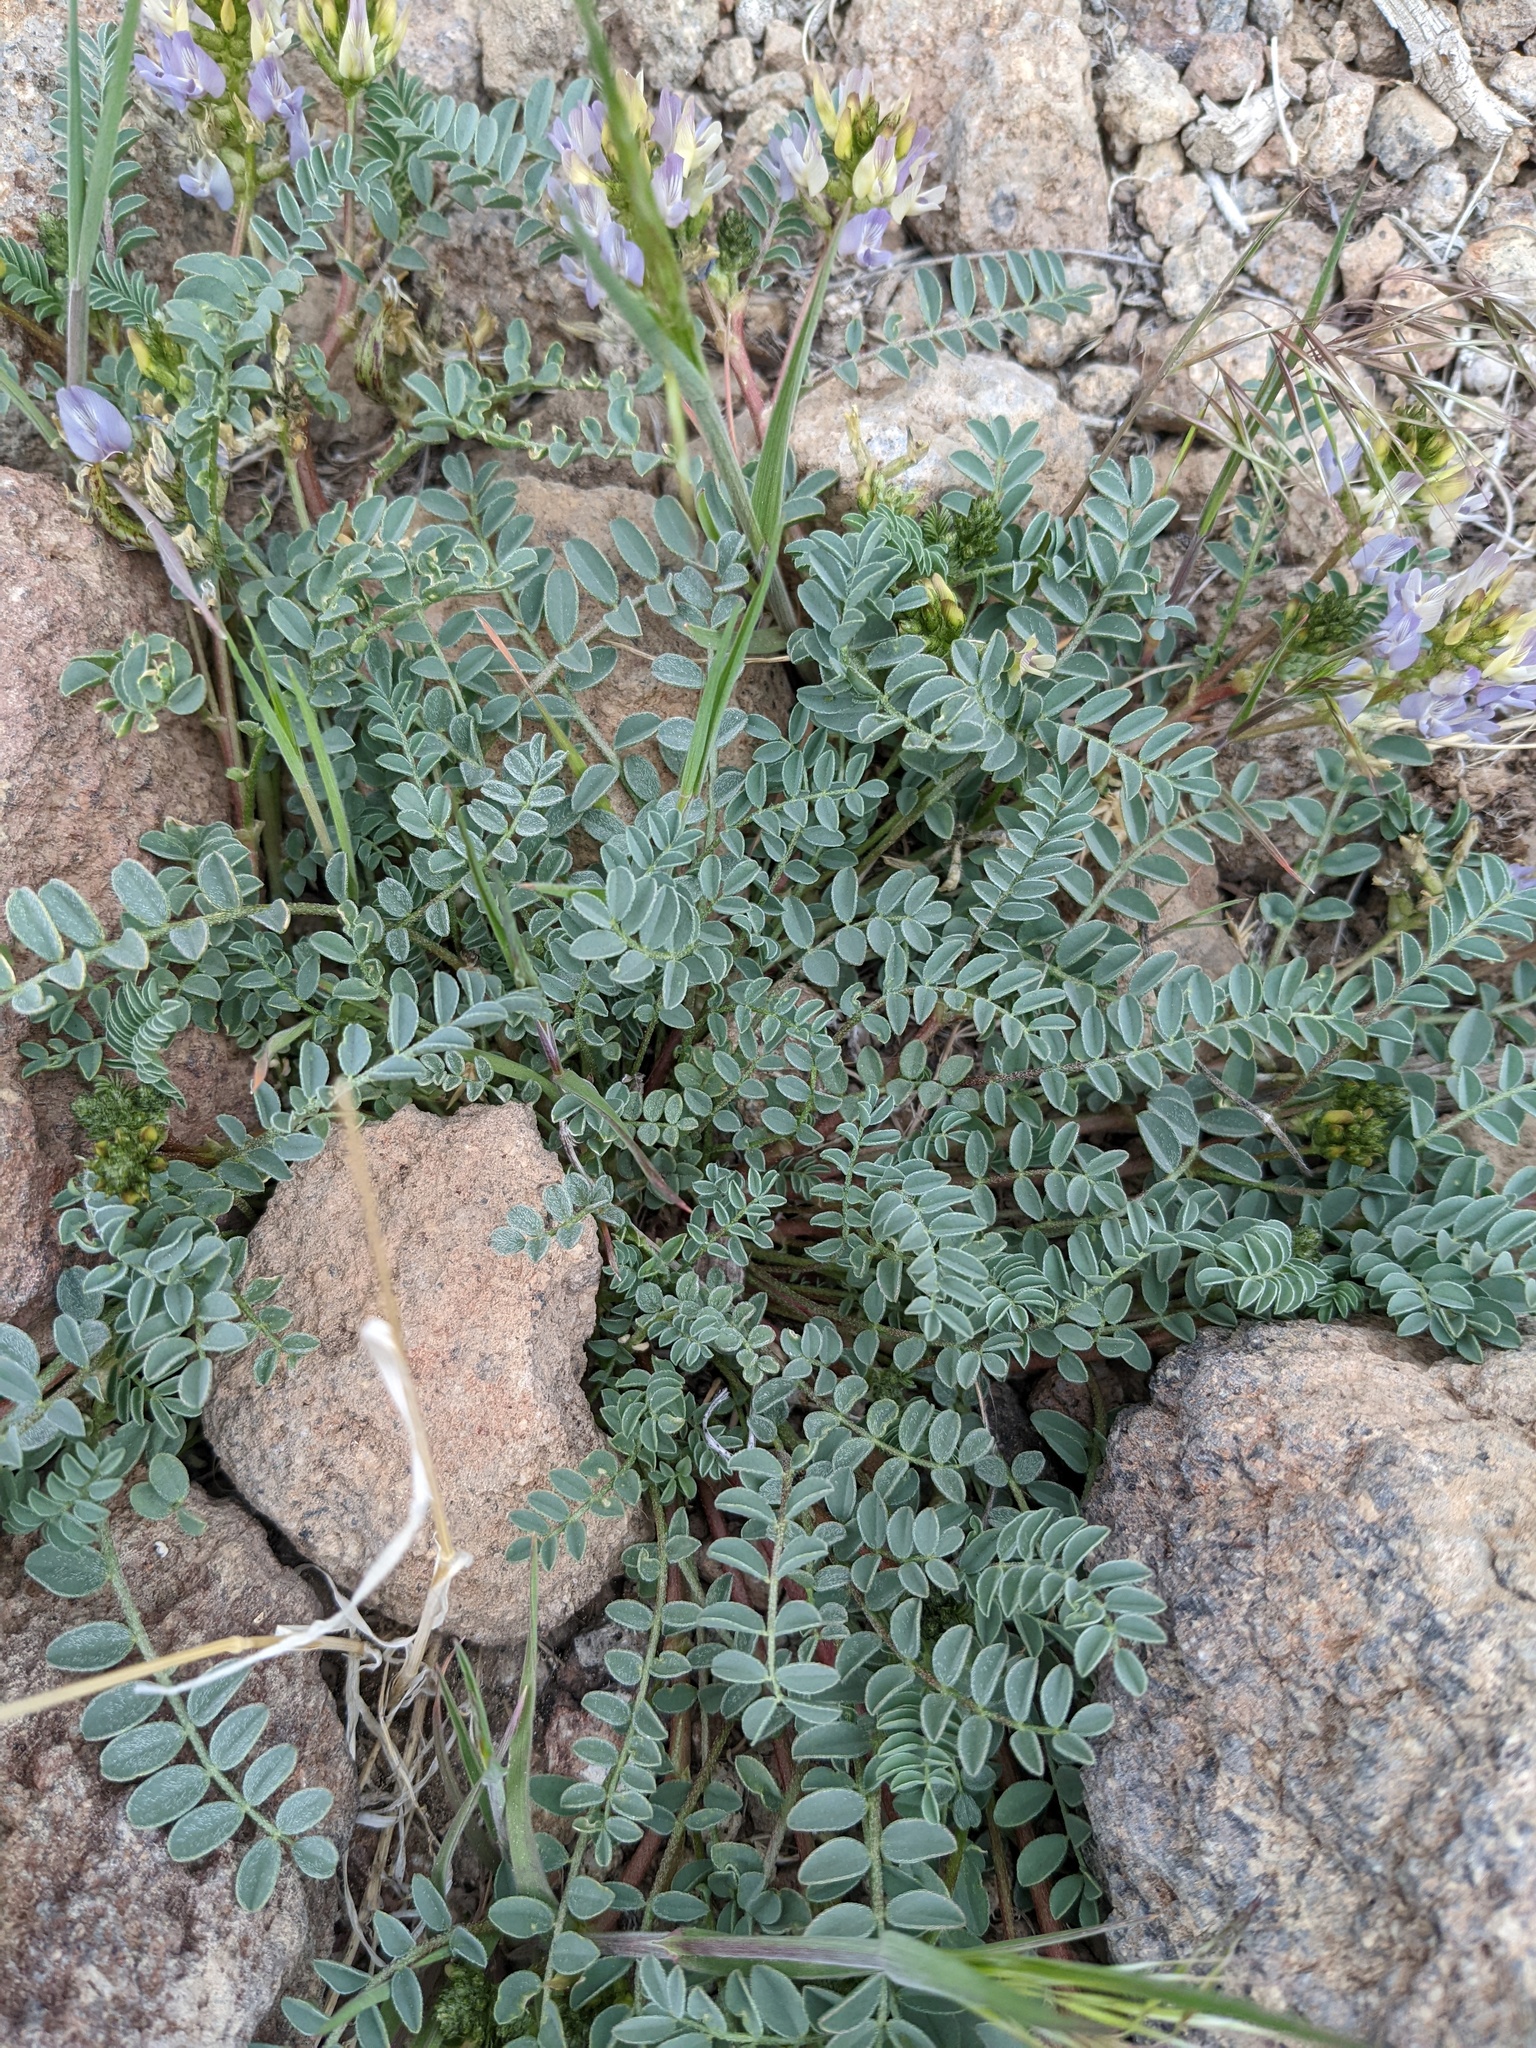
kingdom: Plantae
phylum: Tracheophyta
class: Magnoliopsida
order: Fabales
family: Fabaceae
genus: Astragalus
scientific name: Astragalus lentiginosus
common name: Freckled milkvetch
